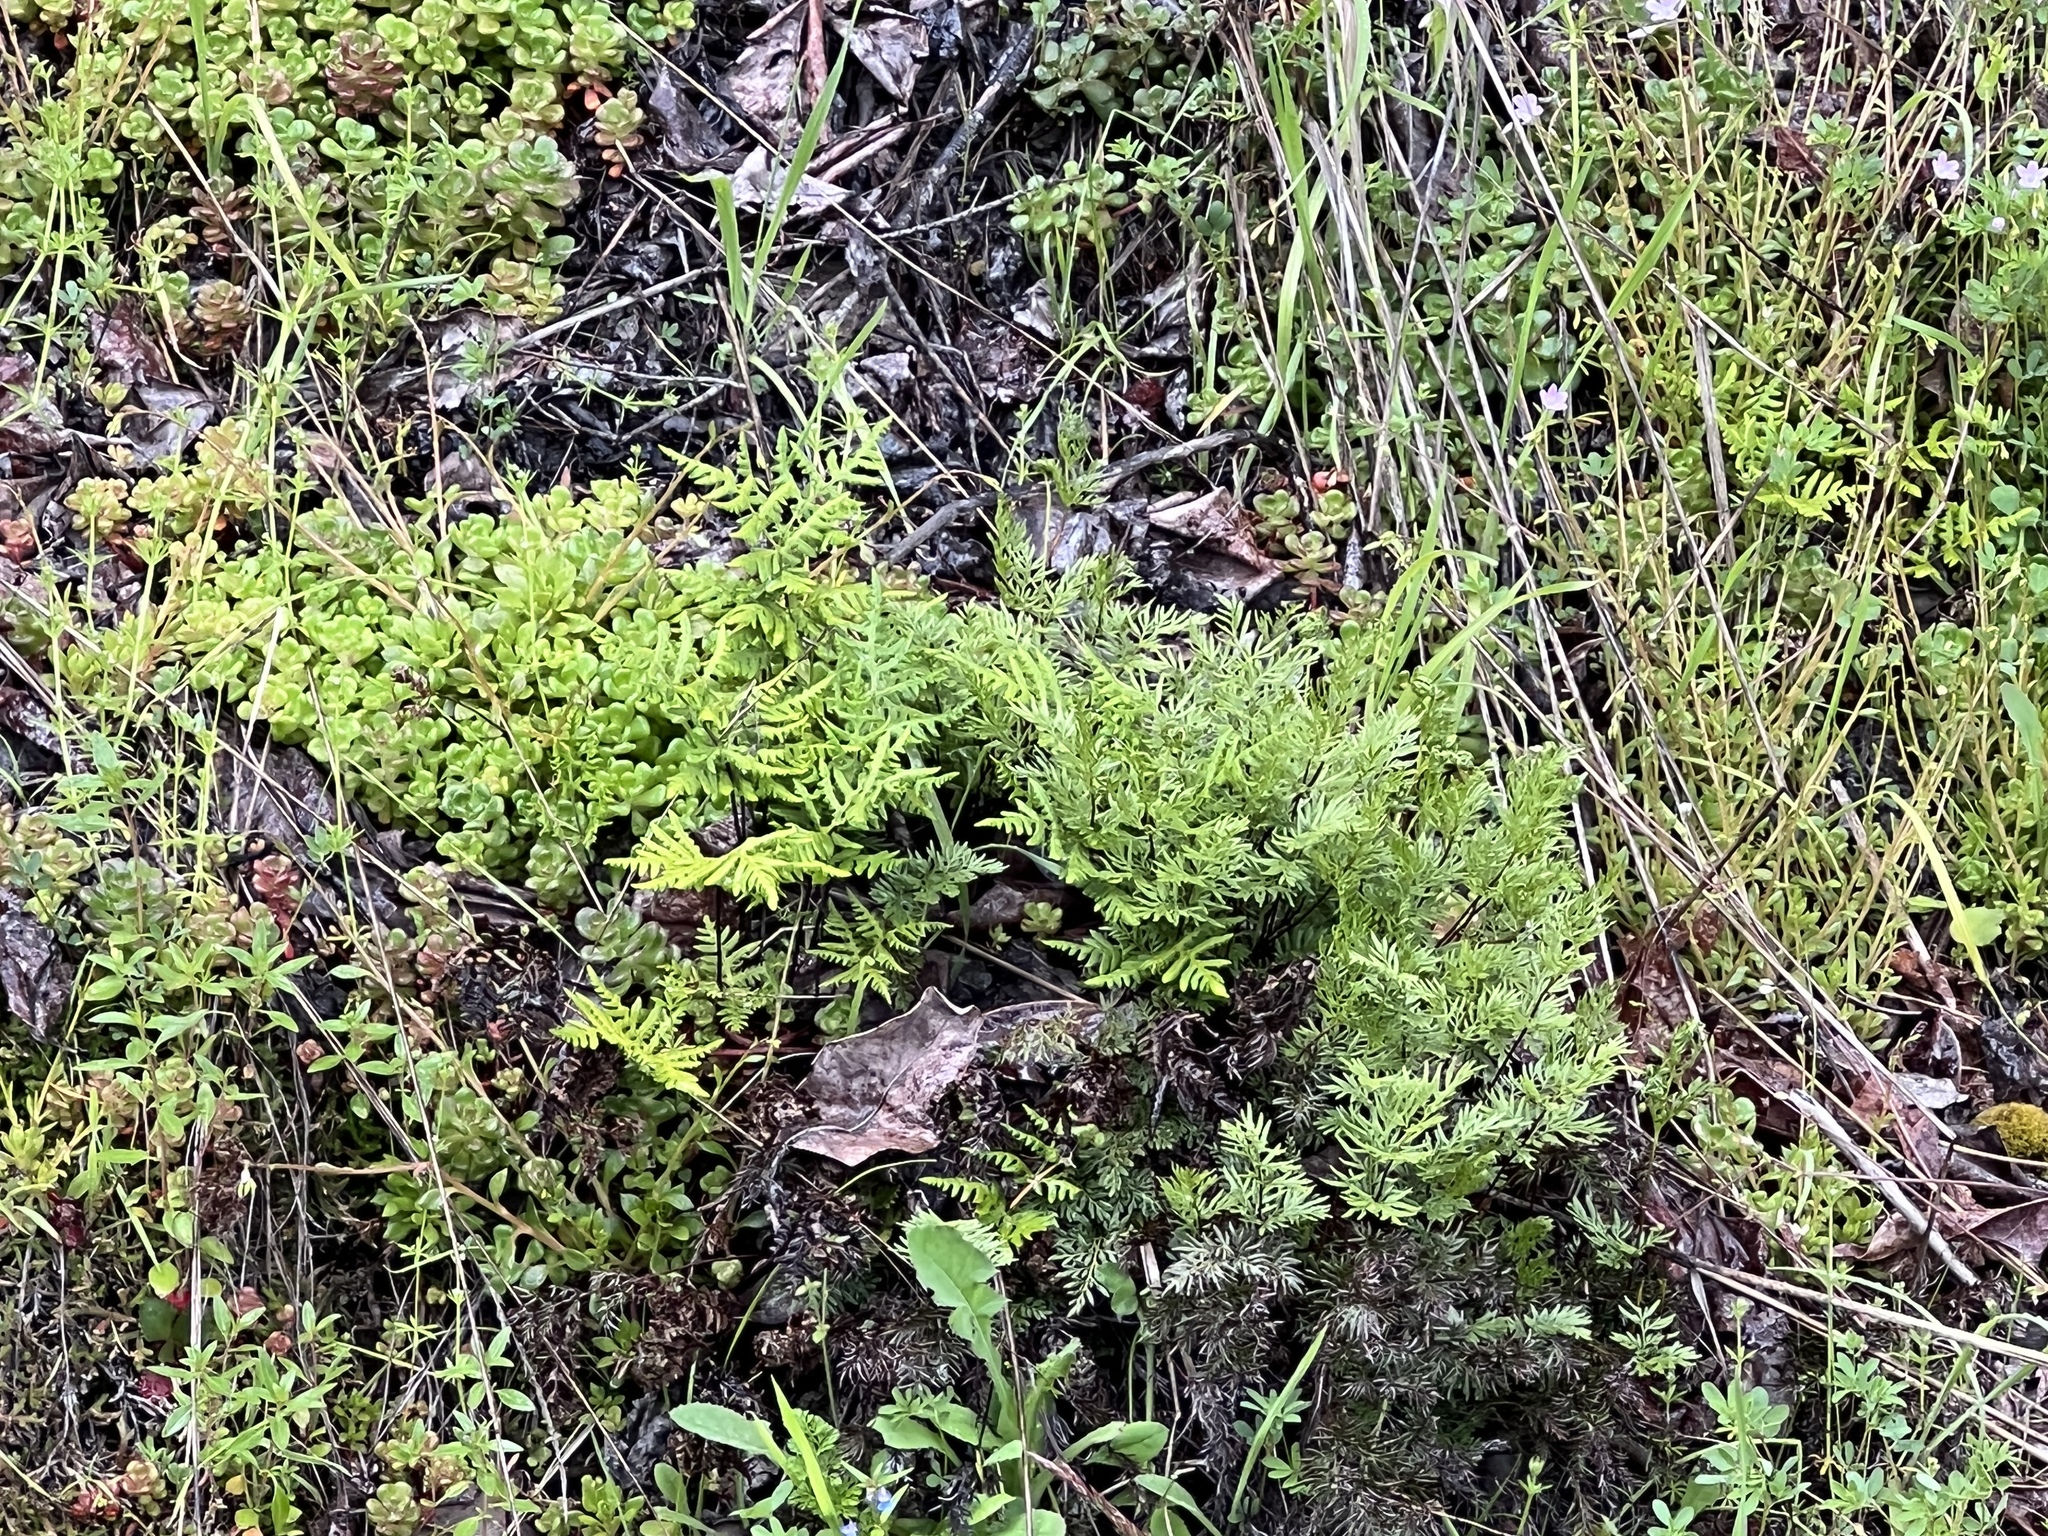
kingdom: Plantae
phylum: Tracheophyta
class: Polypodiopsida
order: Polypodiales
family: Pteridaceae
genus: Aspidotis
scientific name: Aspidotis densa
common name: Indian's dream
